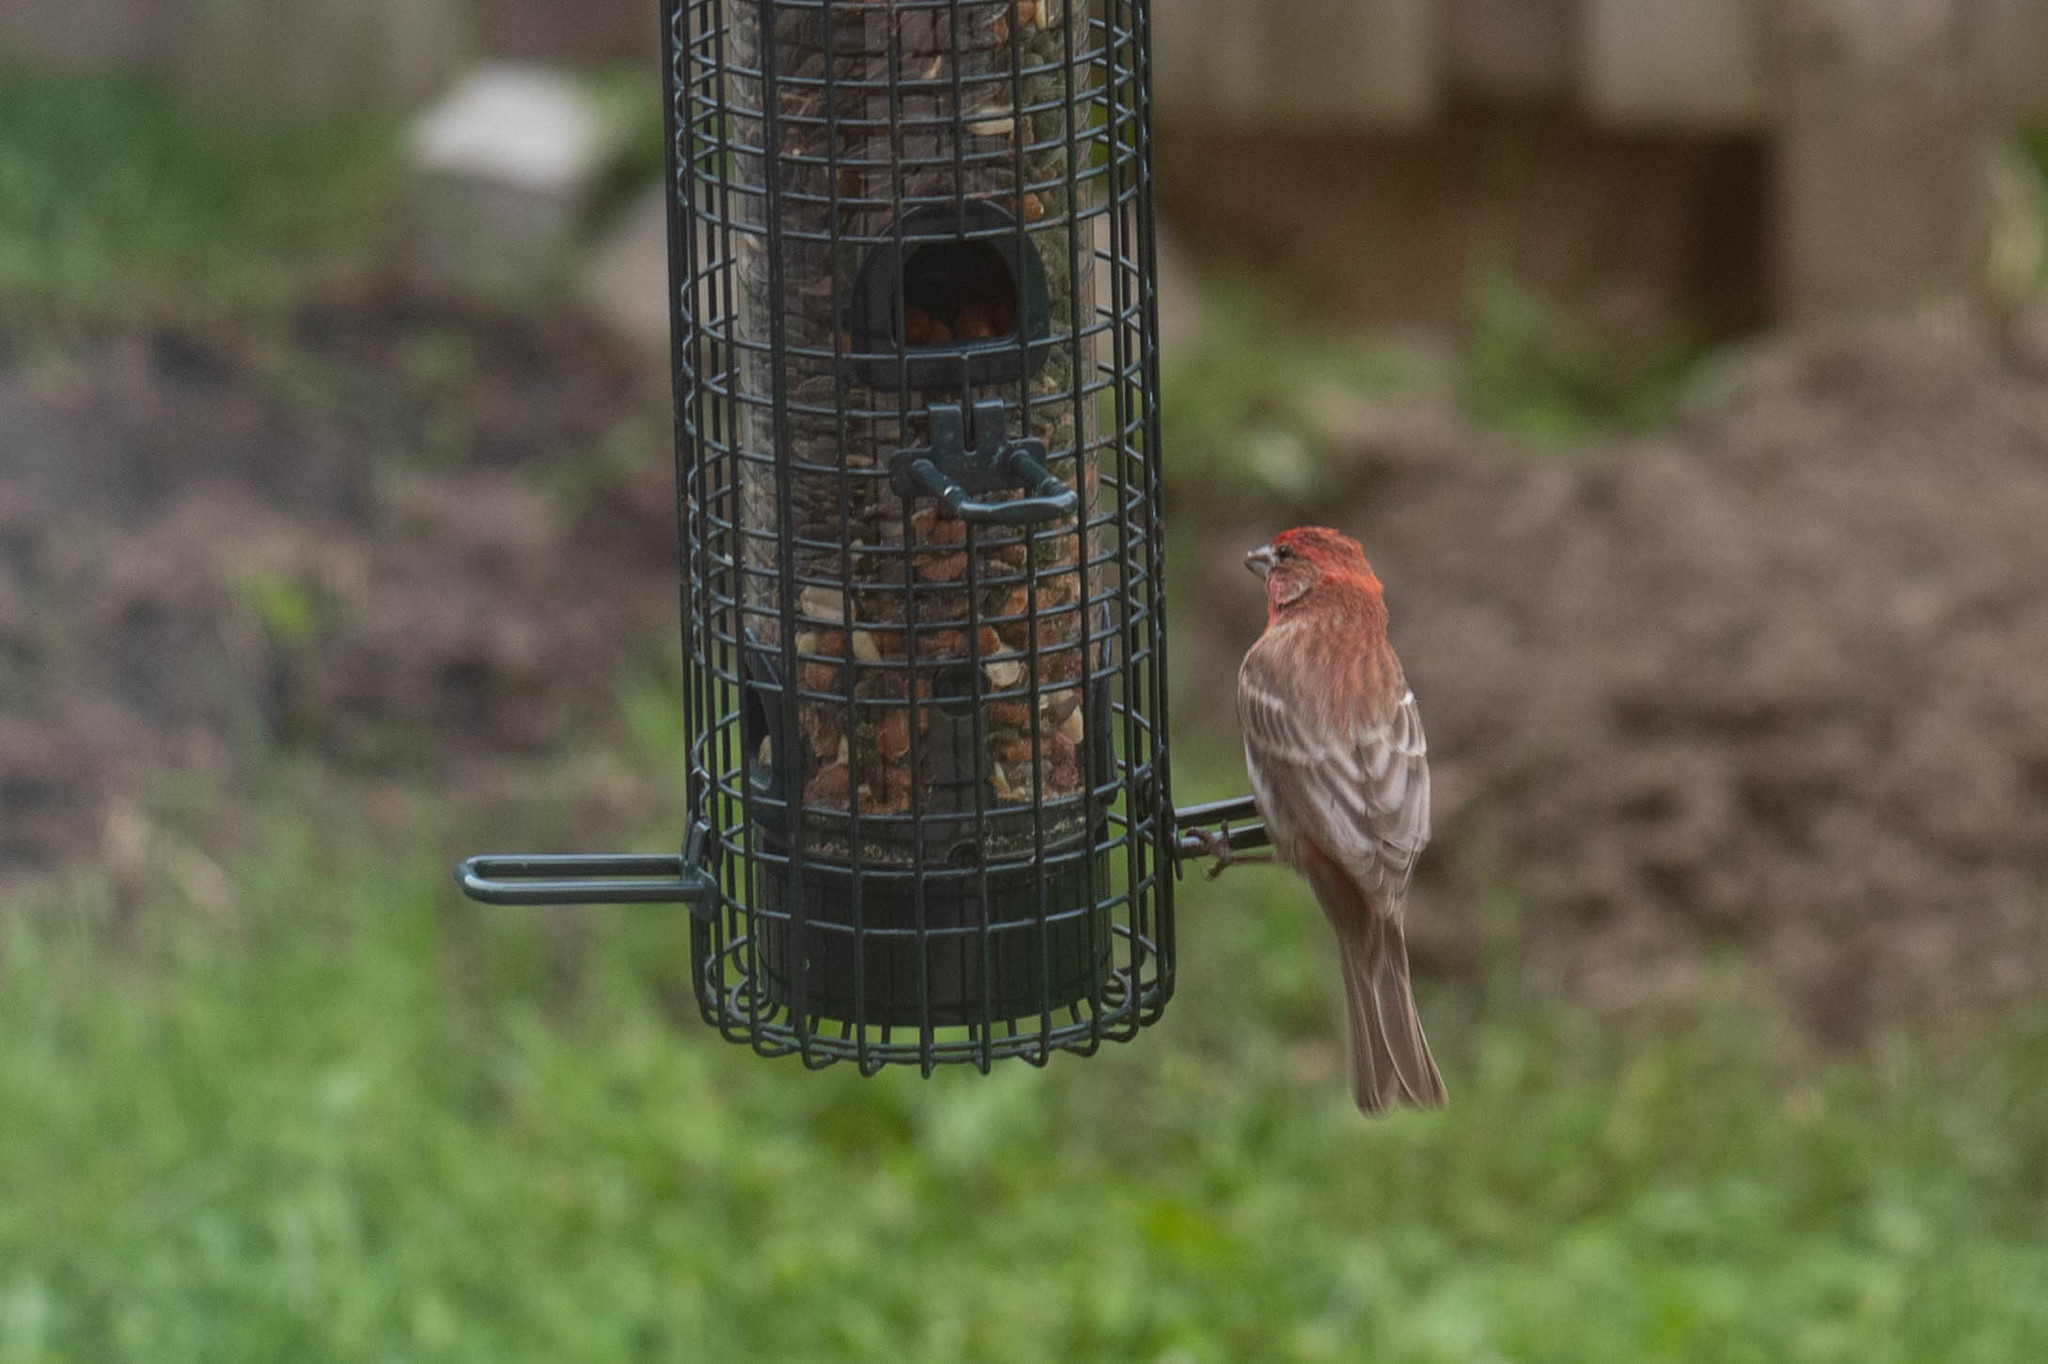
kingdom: Animalia
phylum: Chordata
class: Aves
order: Passeriformes
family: Fringillidae
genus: Haemorhous
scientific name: Haemorhous mexicanus
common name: House finch
